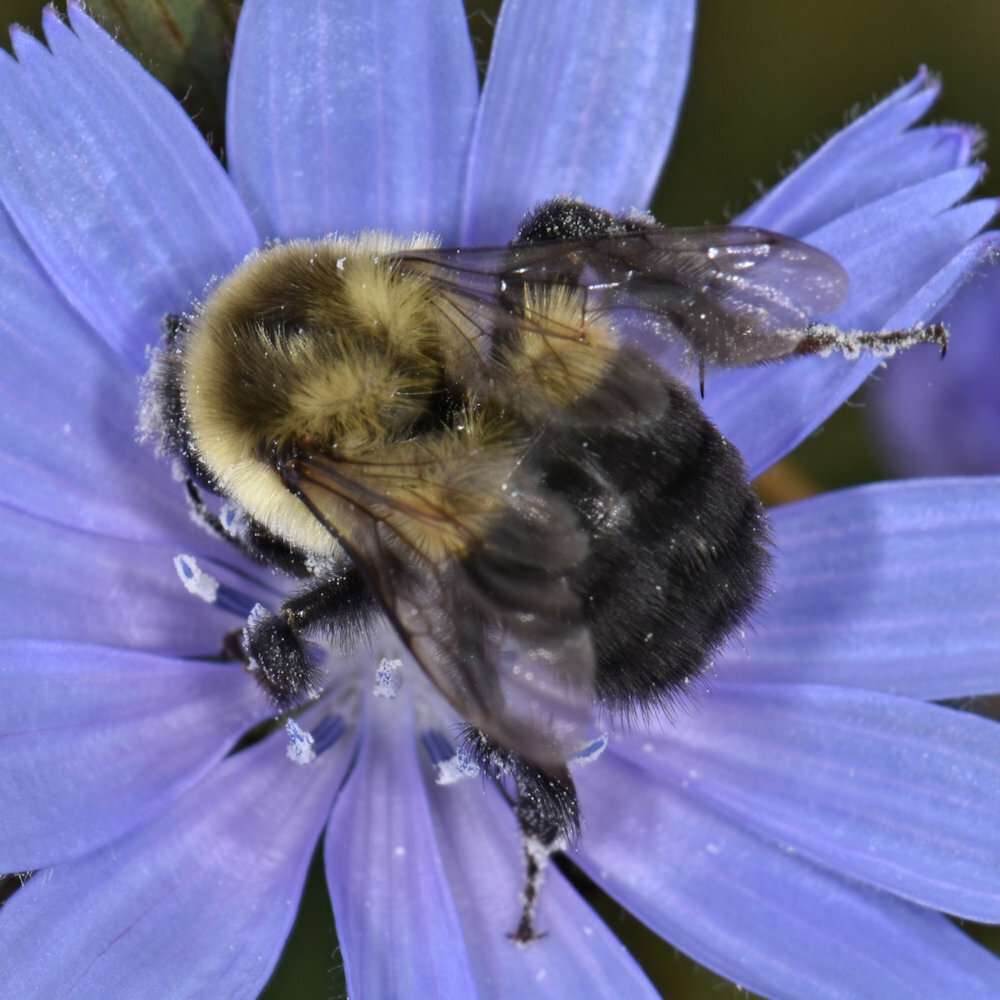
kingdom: Animalia
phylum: Arthropoda
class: Insecta
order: Hymenoptera
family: Apidae
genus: Bombus
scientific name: Bombus impatiens
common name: Common eastern bumble bee
